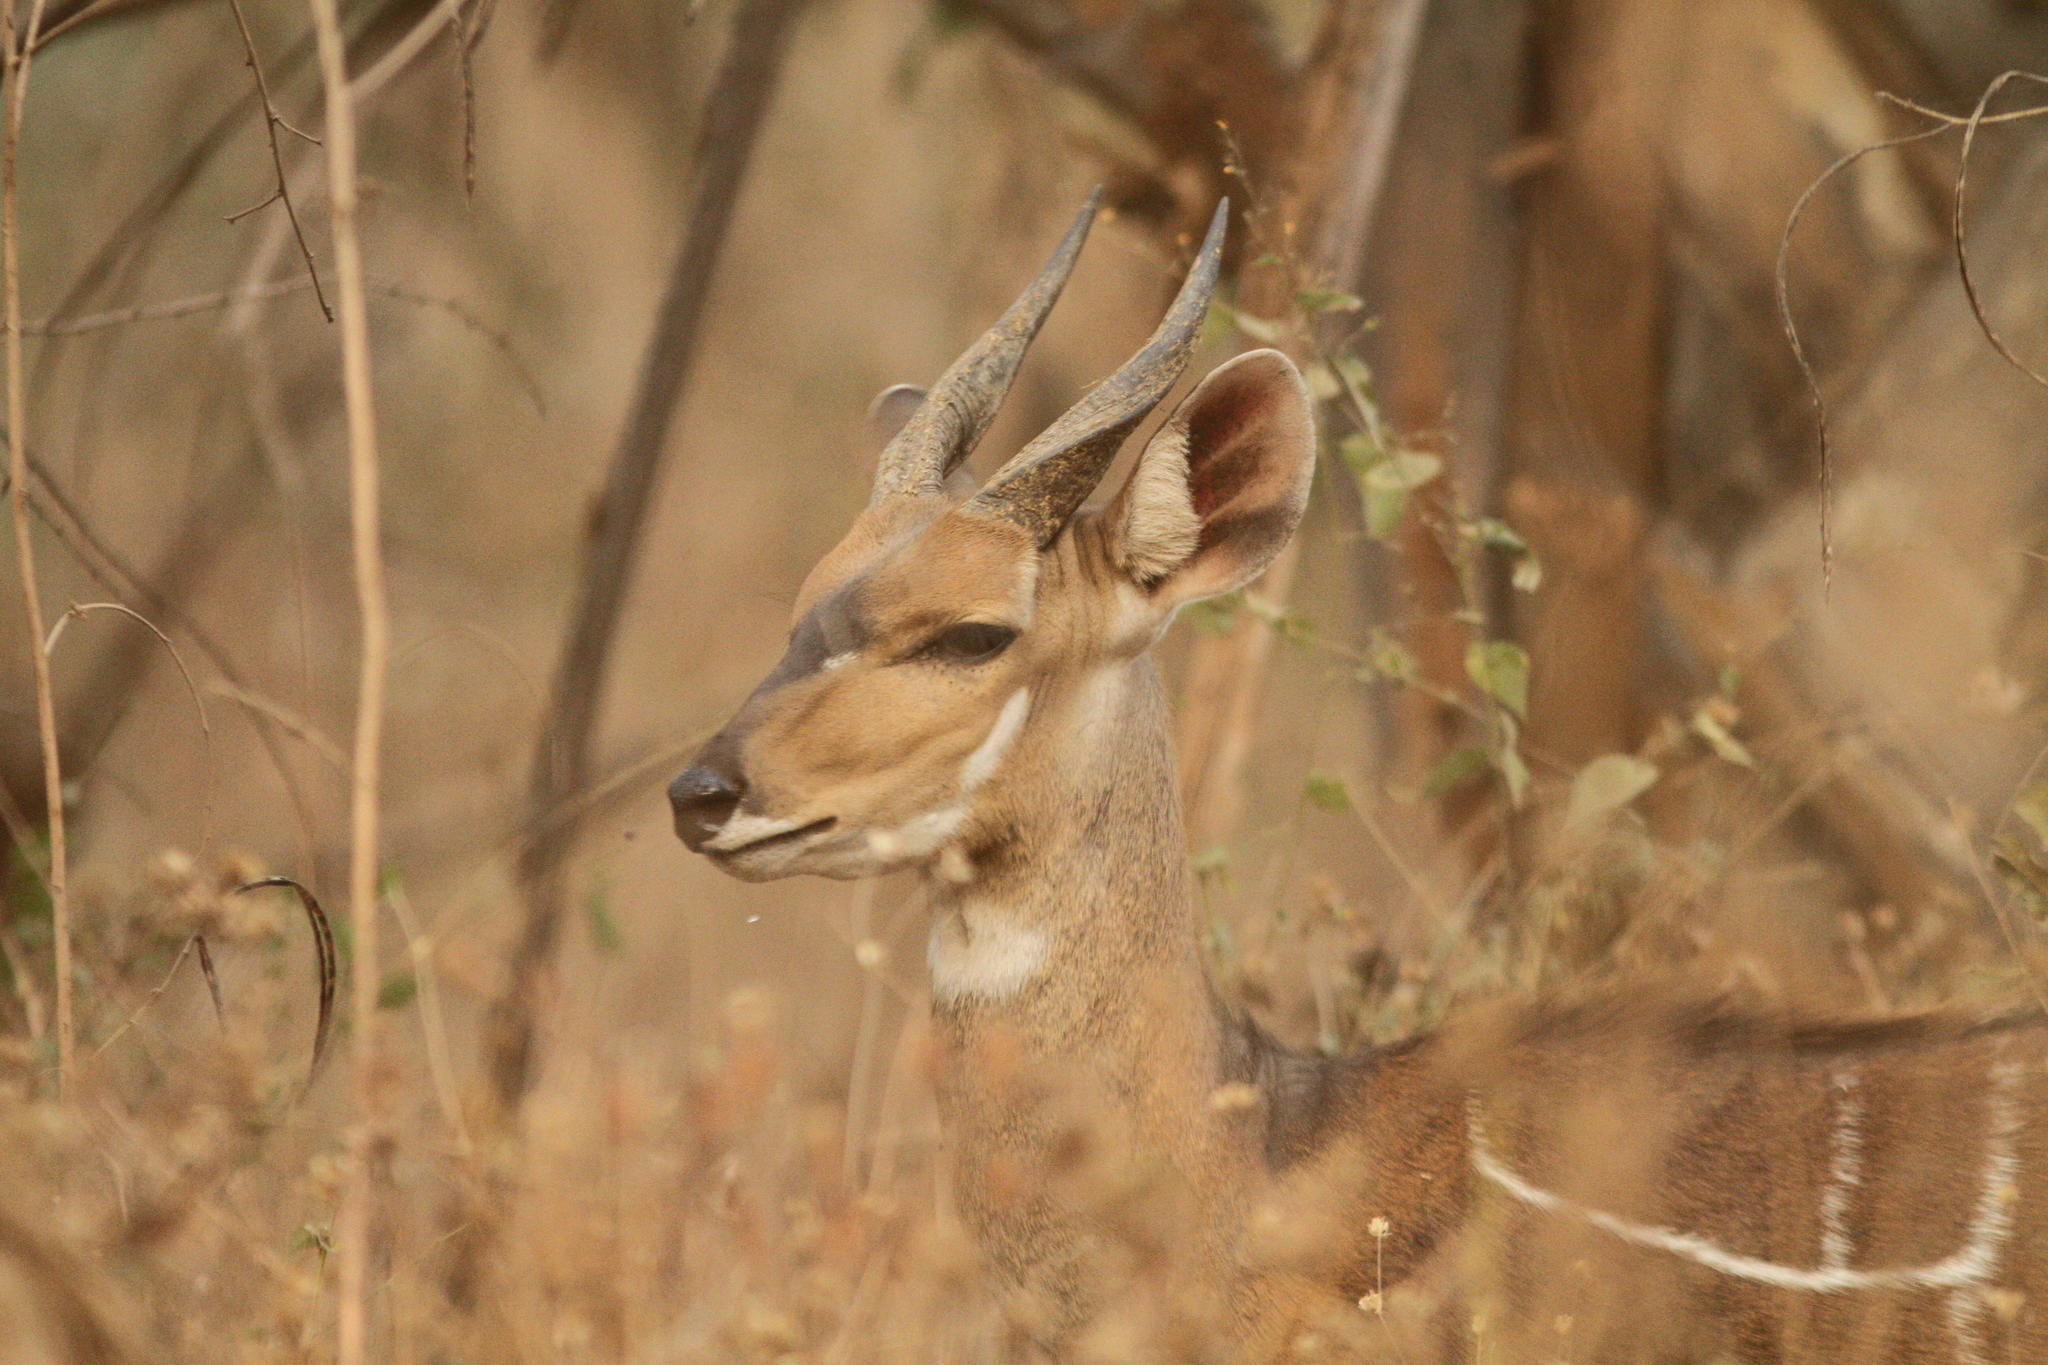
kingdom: Animalia
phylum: Chordata
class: Mammalia
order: Artiodactyla
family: Bovidae
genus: Tragelaphus
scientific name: Tragelaphus scriptus
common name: Bushbuck
